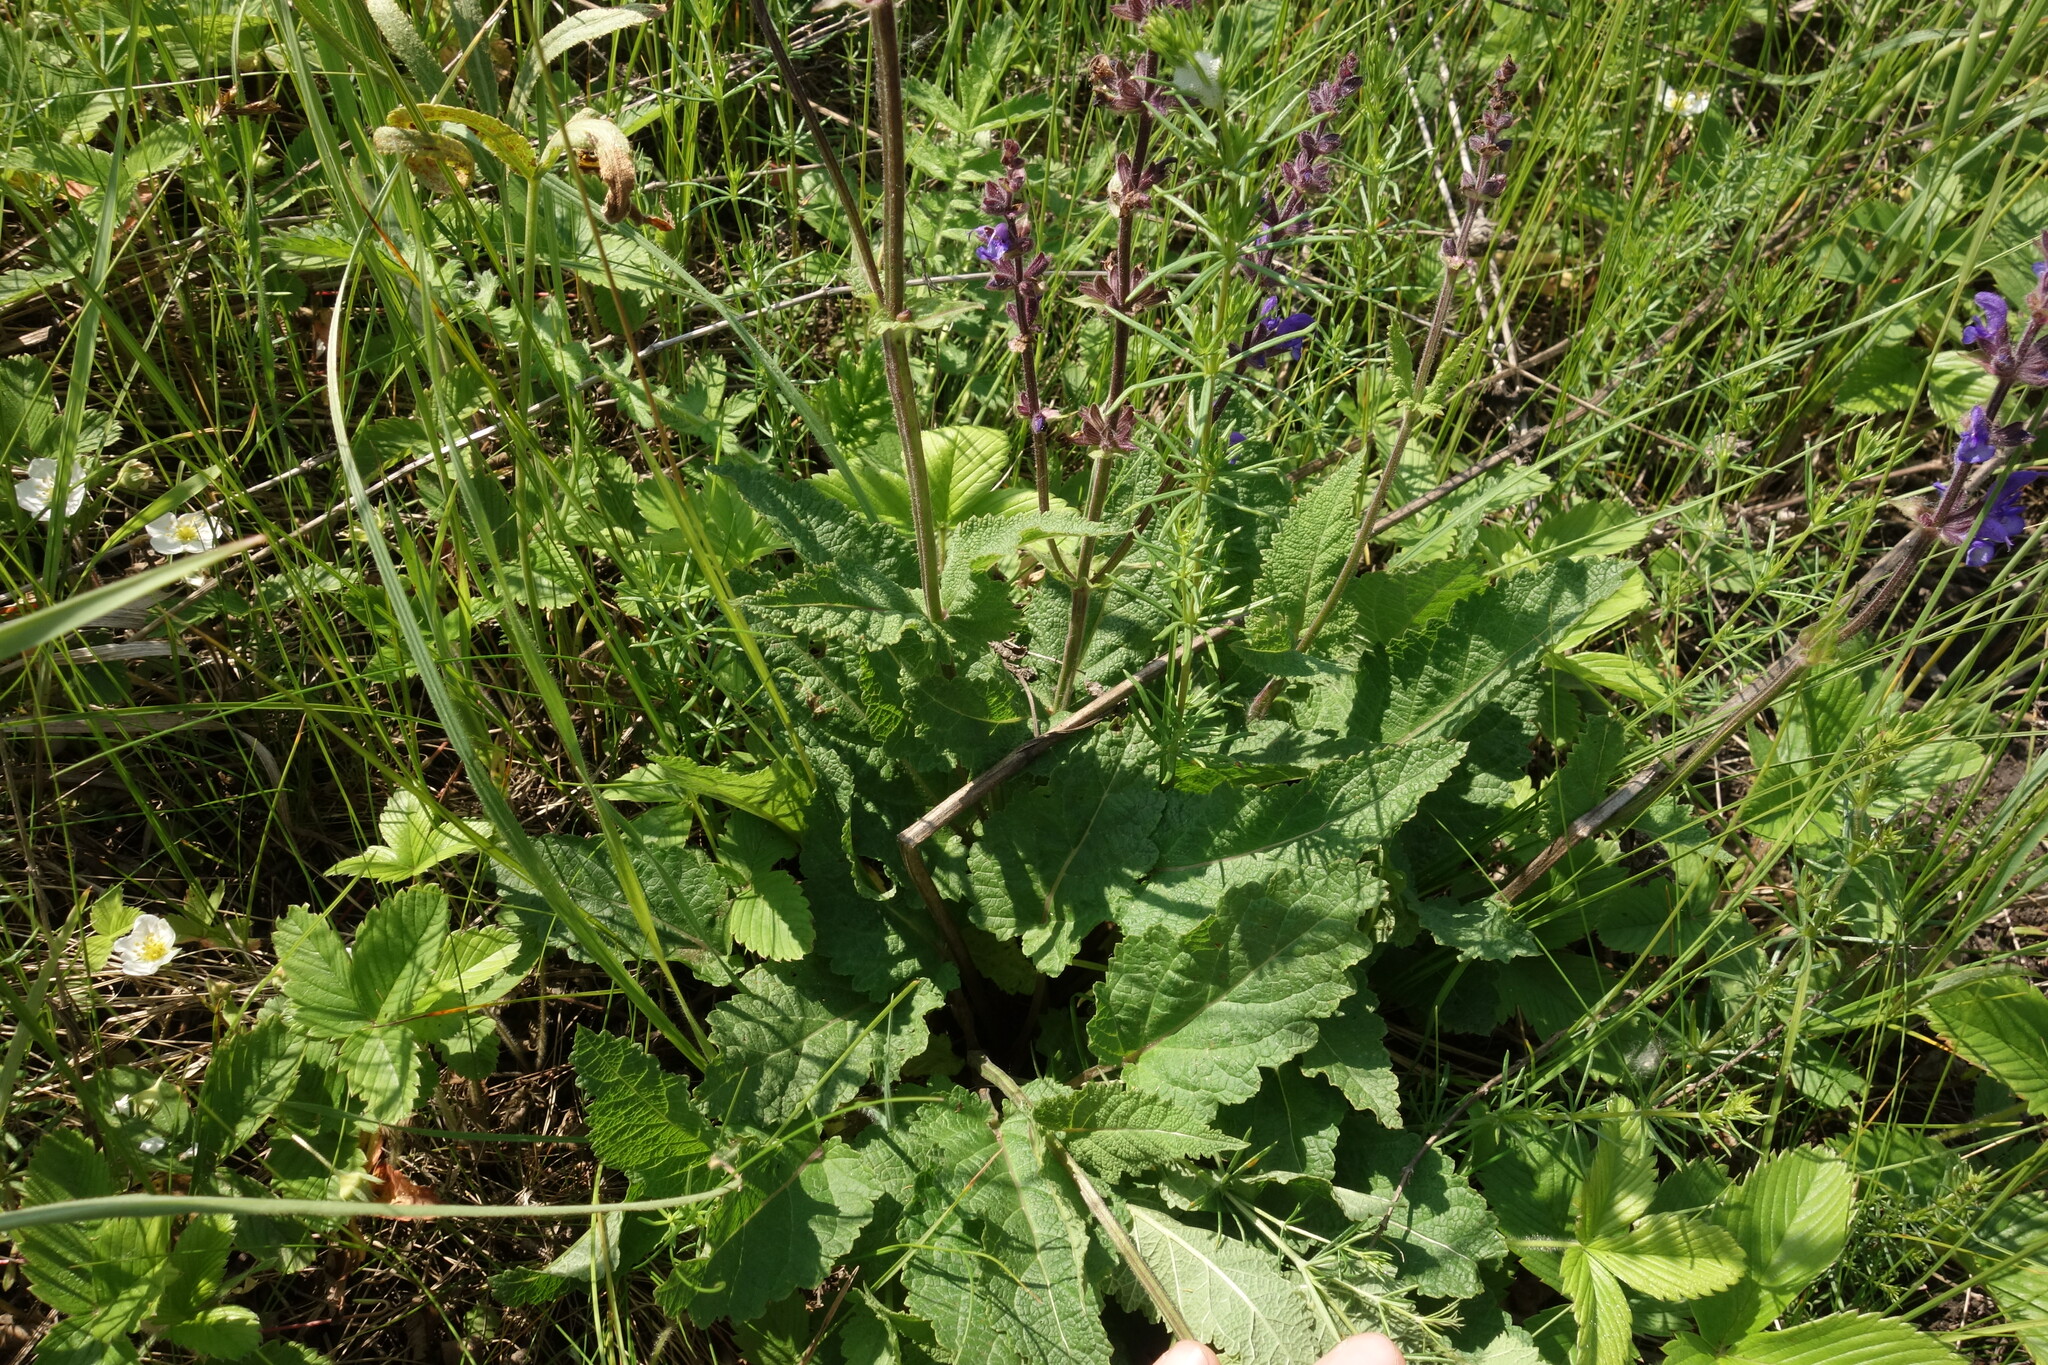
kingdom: Plantae
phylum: Tracheophyta
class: Magnoliopsida
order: Lamiales
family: Lamiaceae
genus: Salvia
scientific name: Salvia dumetorum
